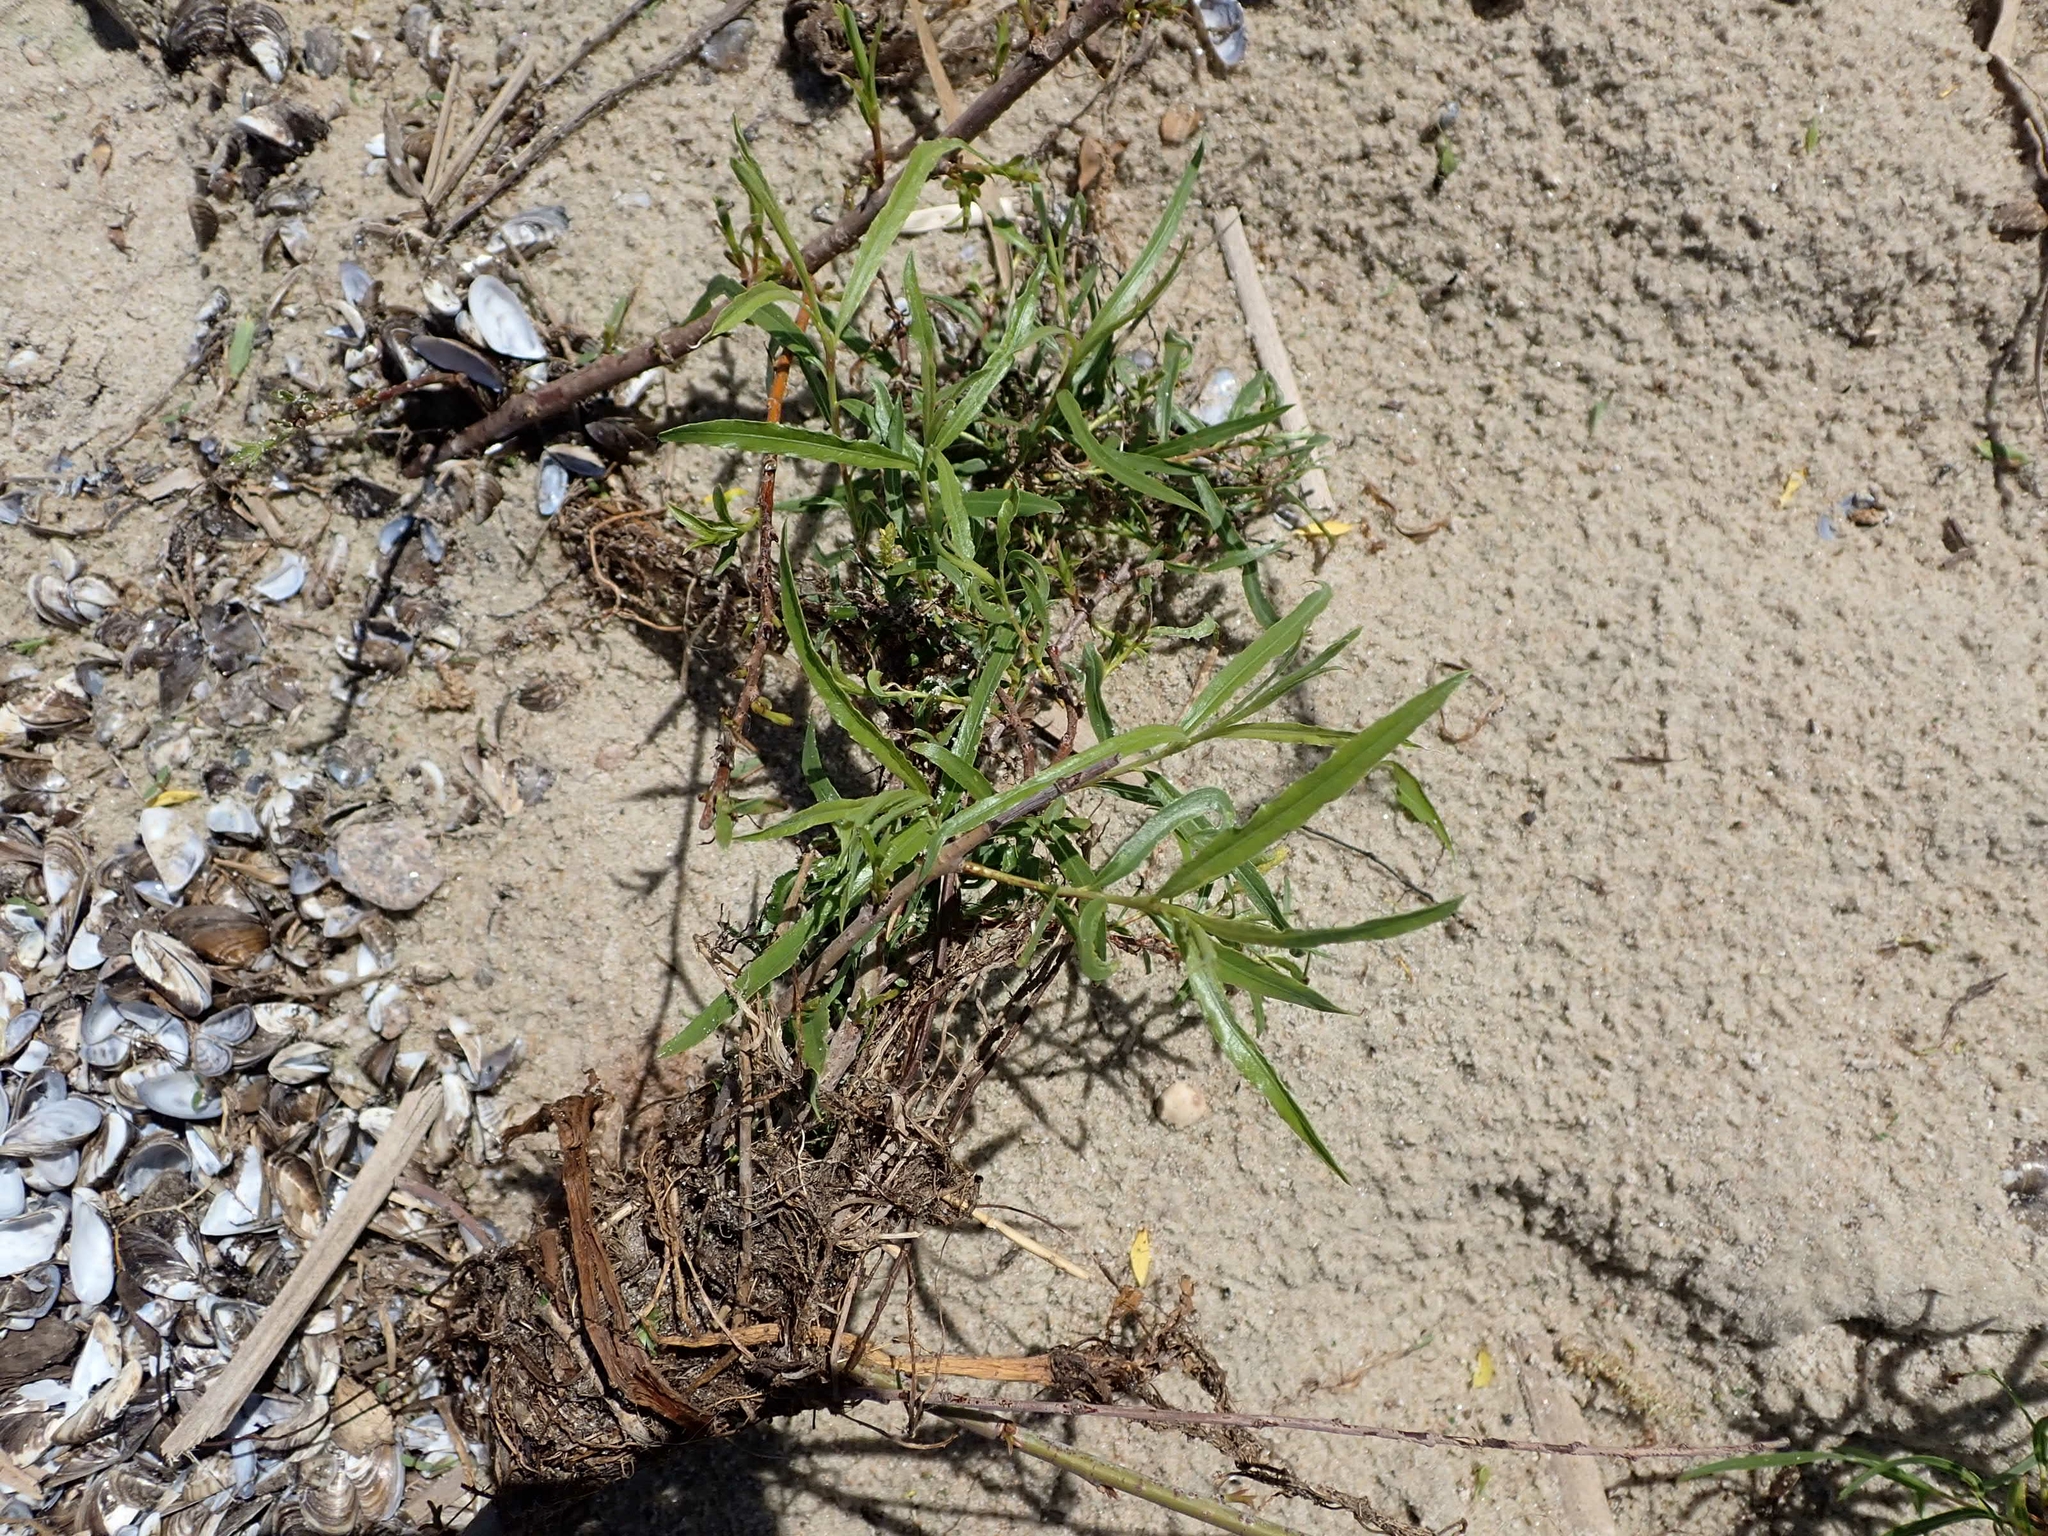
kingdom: Plantae
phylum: Tracheophyta
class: Magnoliopsida
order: Malpighiales
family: Salicaceae
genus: Salix
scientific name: Salix interior
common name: Sandbar willow
